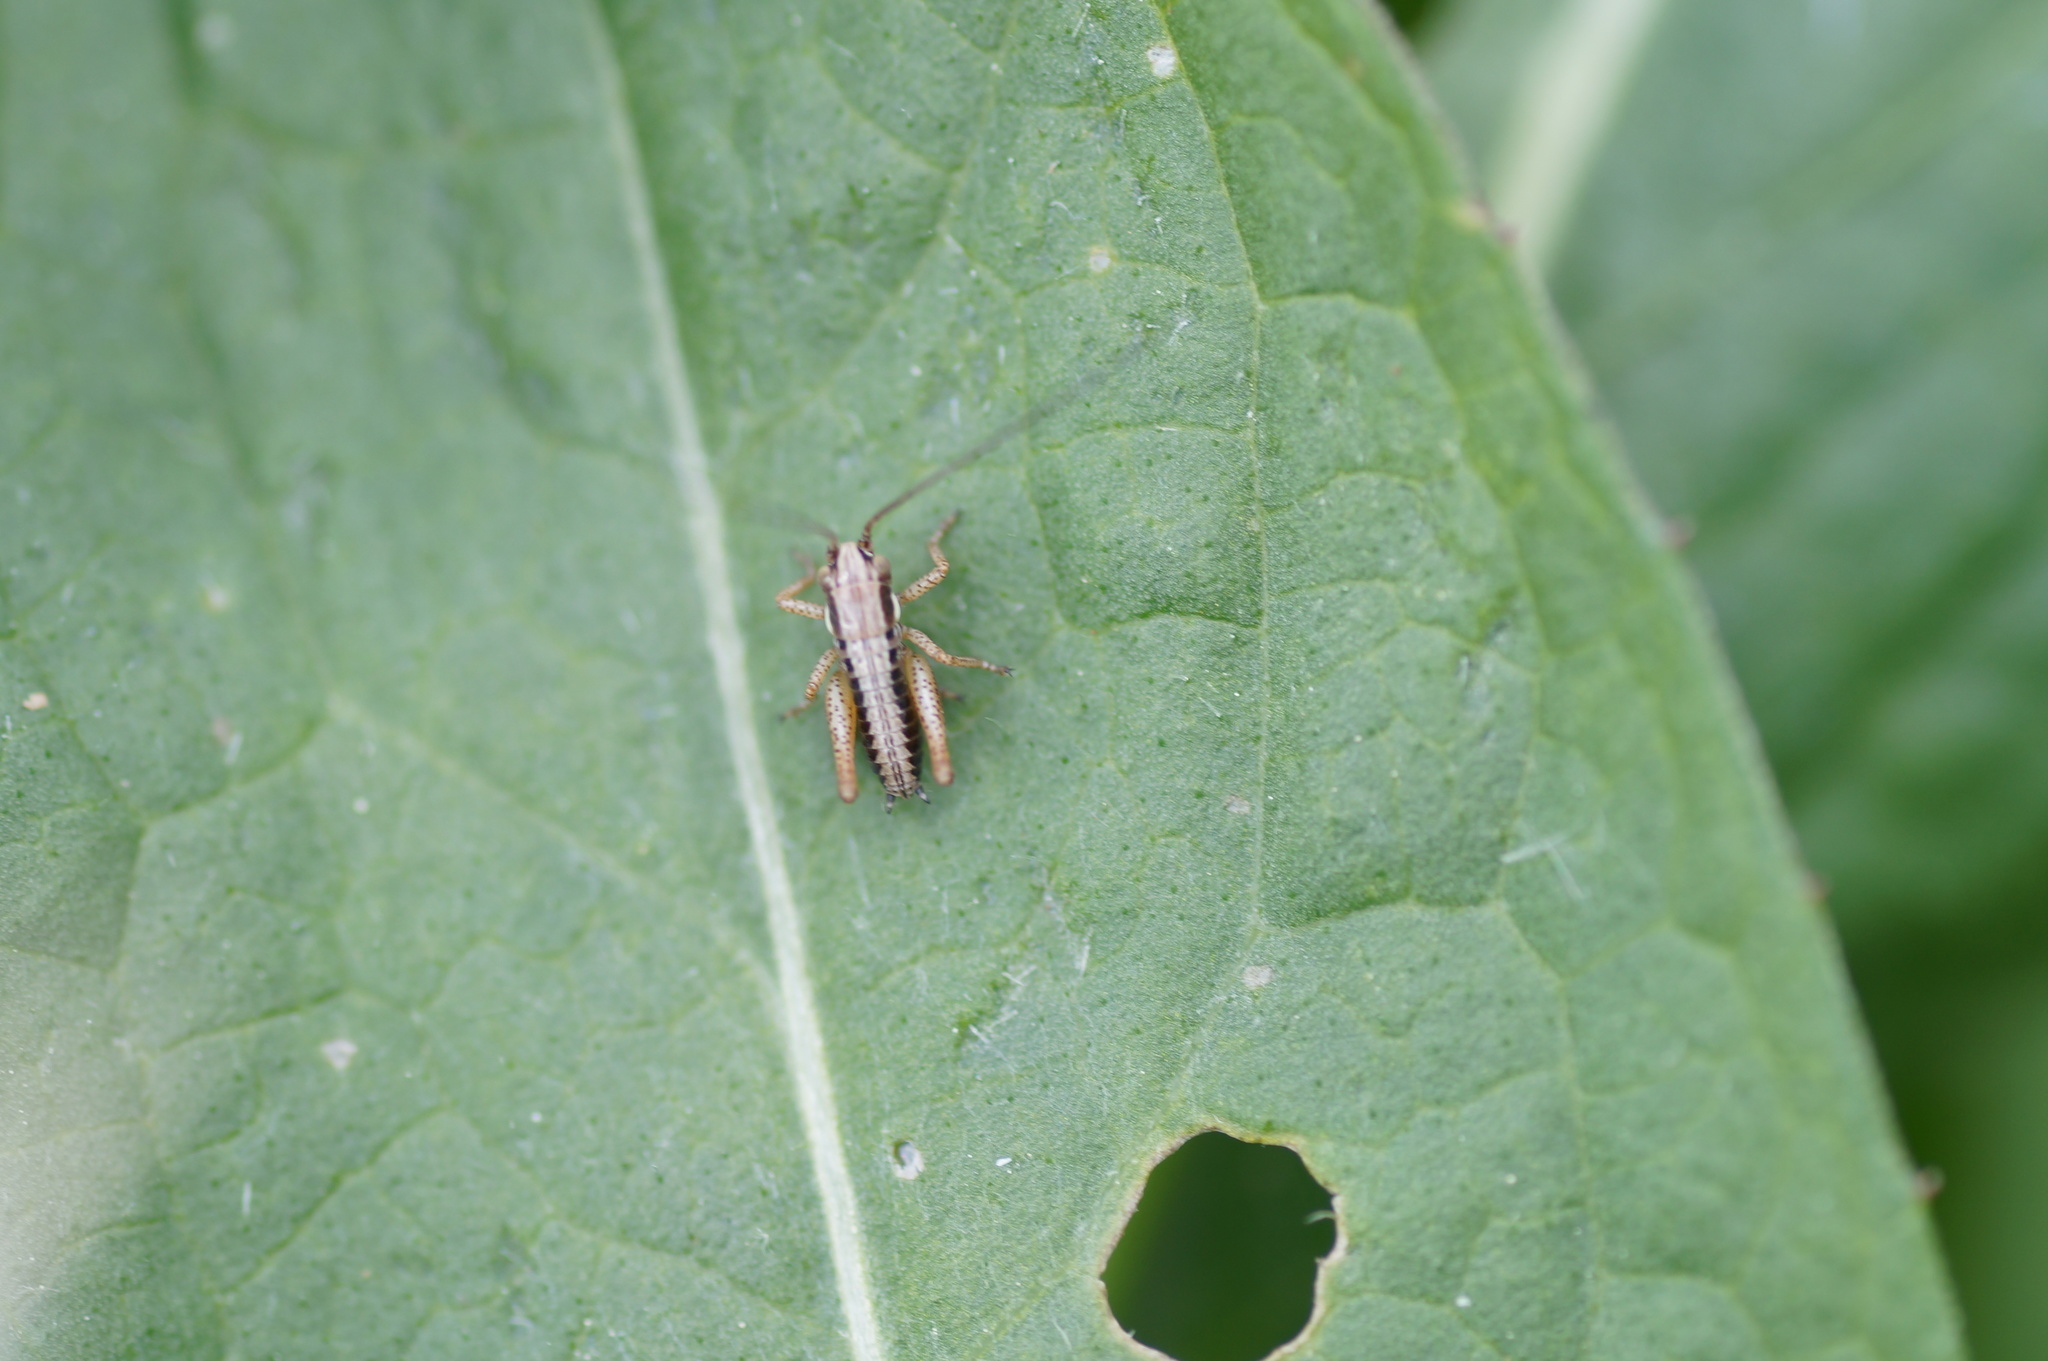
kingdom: Animalia
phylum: Arthropoda
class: Insecta
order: Orthoptera
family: Tettigoniidae
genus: Pholidoptera
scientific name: Pholidoptera griseoaptera
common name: Dark bush-cricket
